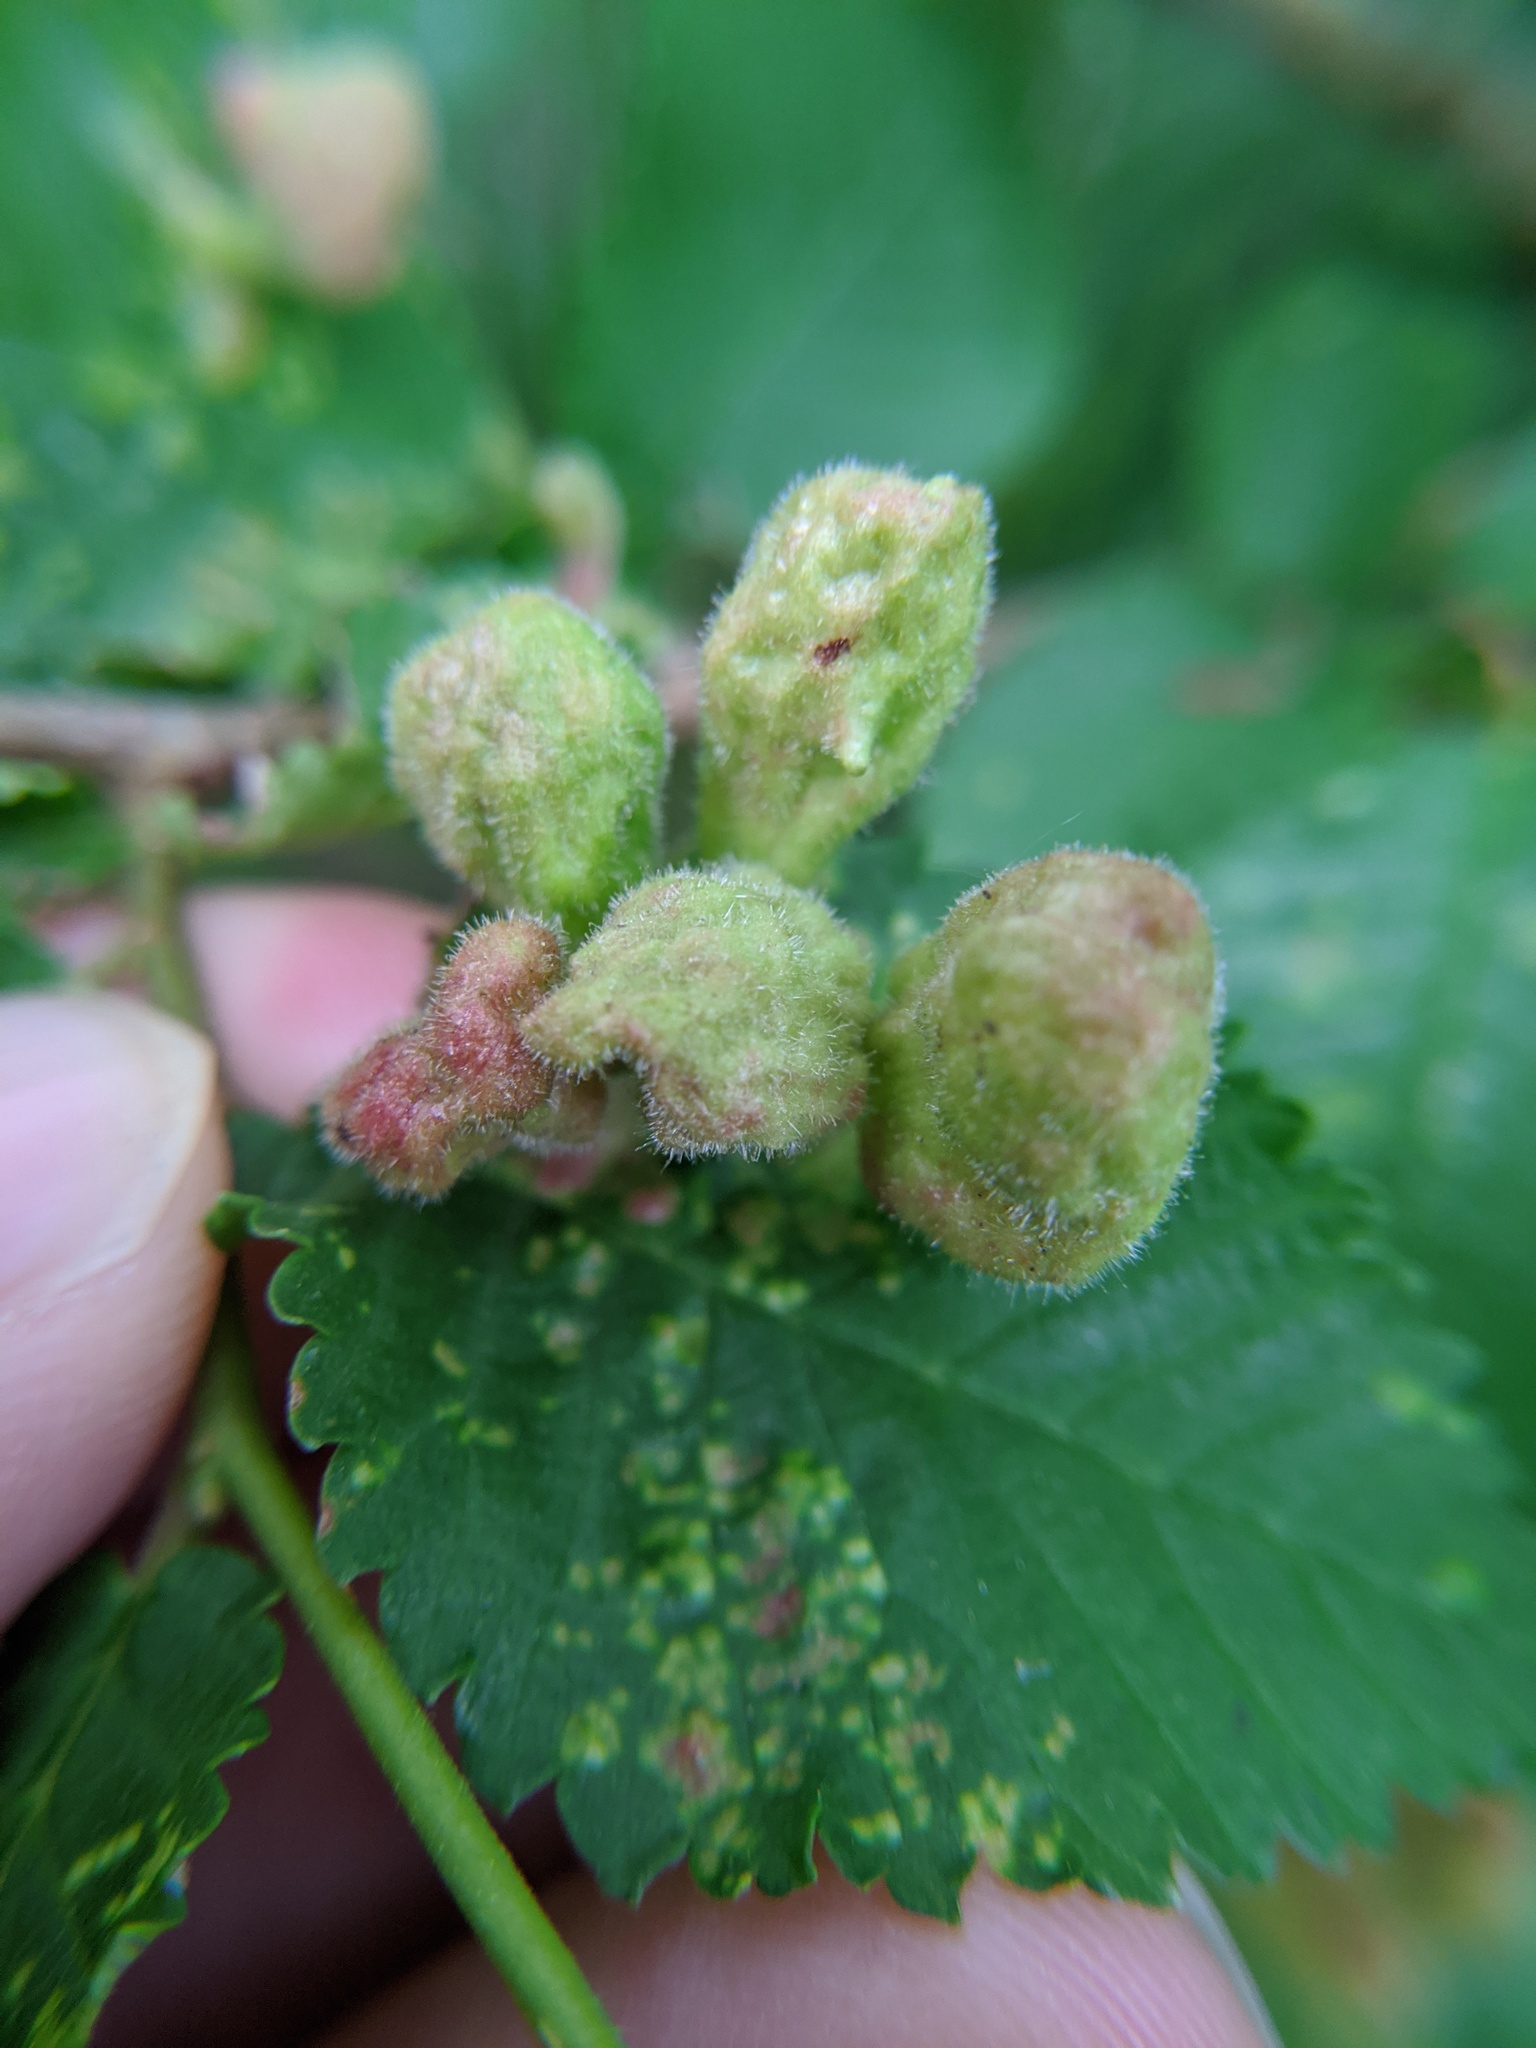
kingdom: Animalia
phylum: Arthropoda
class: Insecta
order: Hemiptera
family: Aphididae
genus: Tetraneura
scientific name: Tetraneura nigriabdominalis
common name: Aphid
